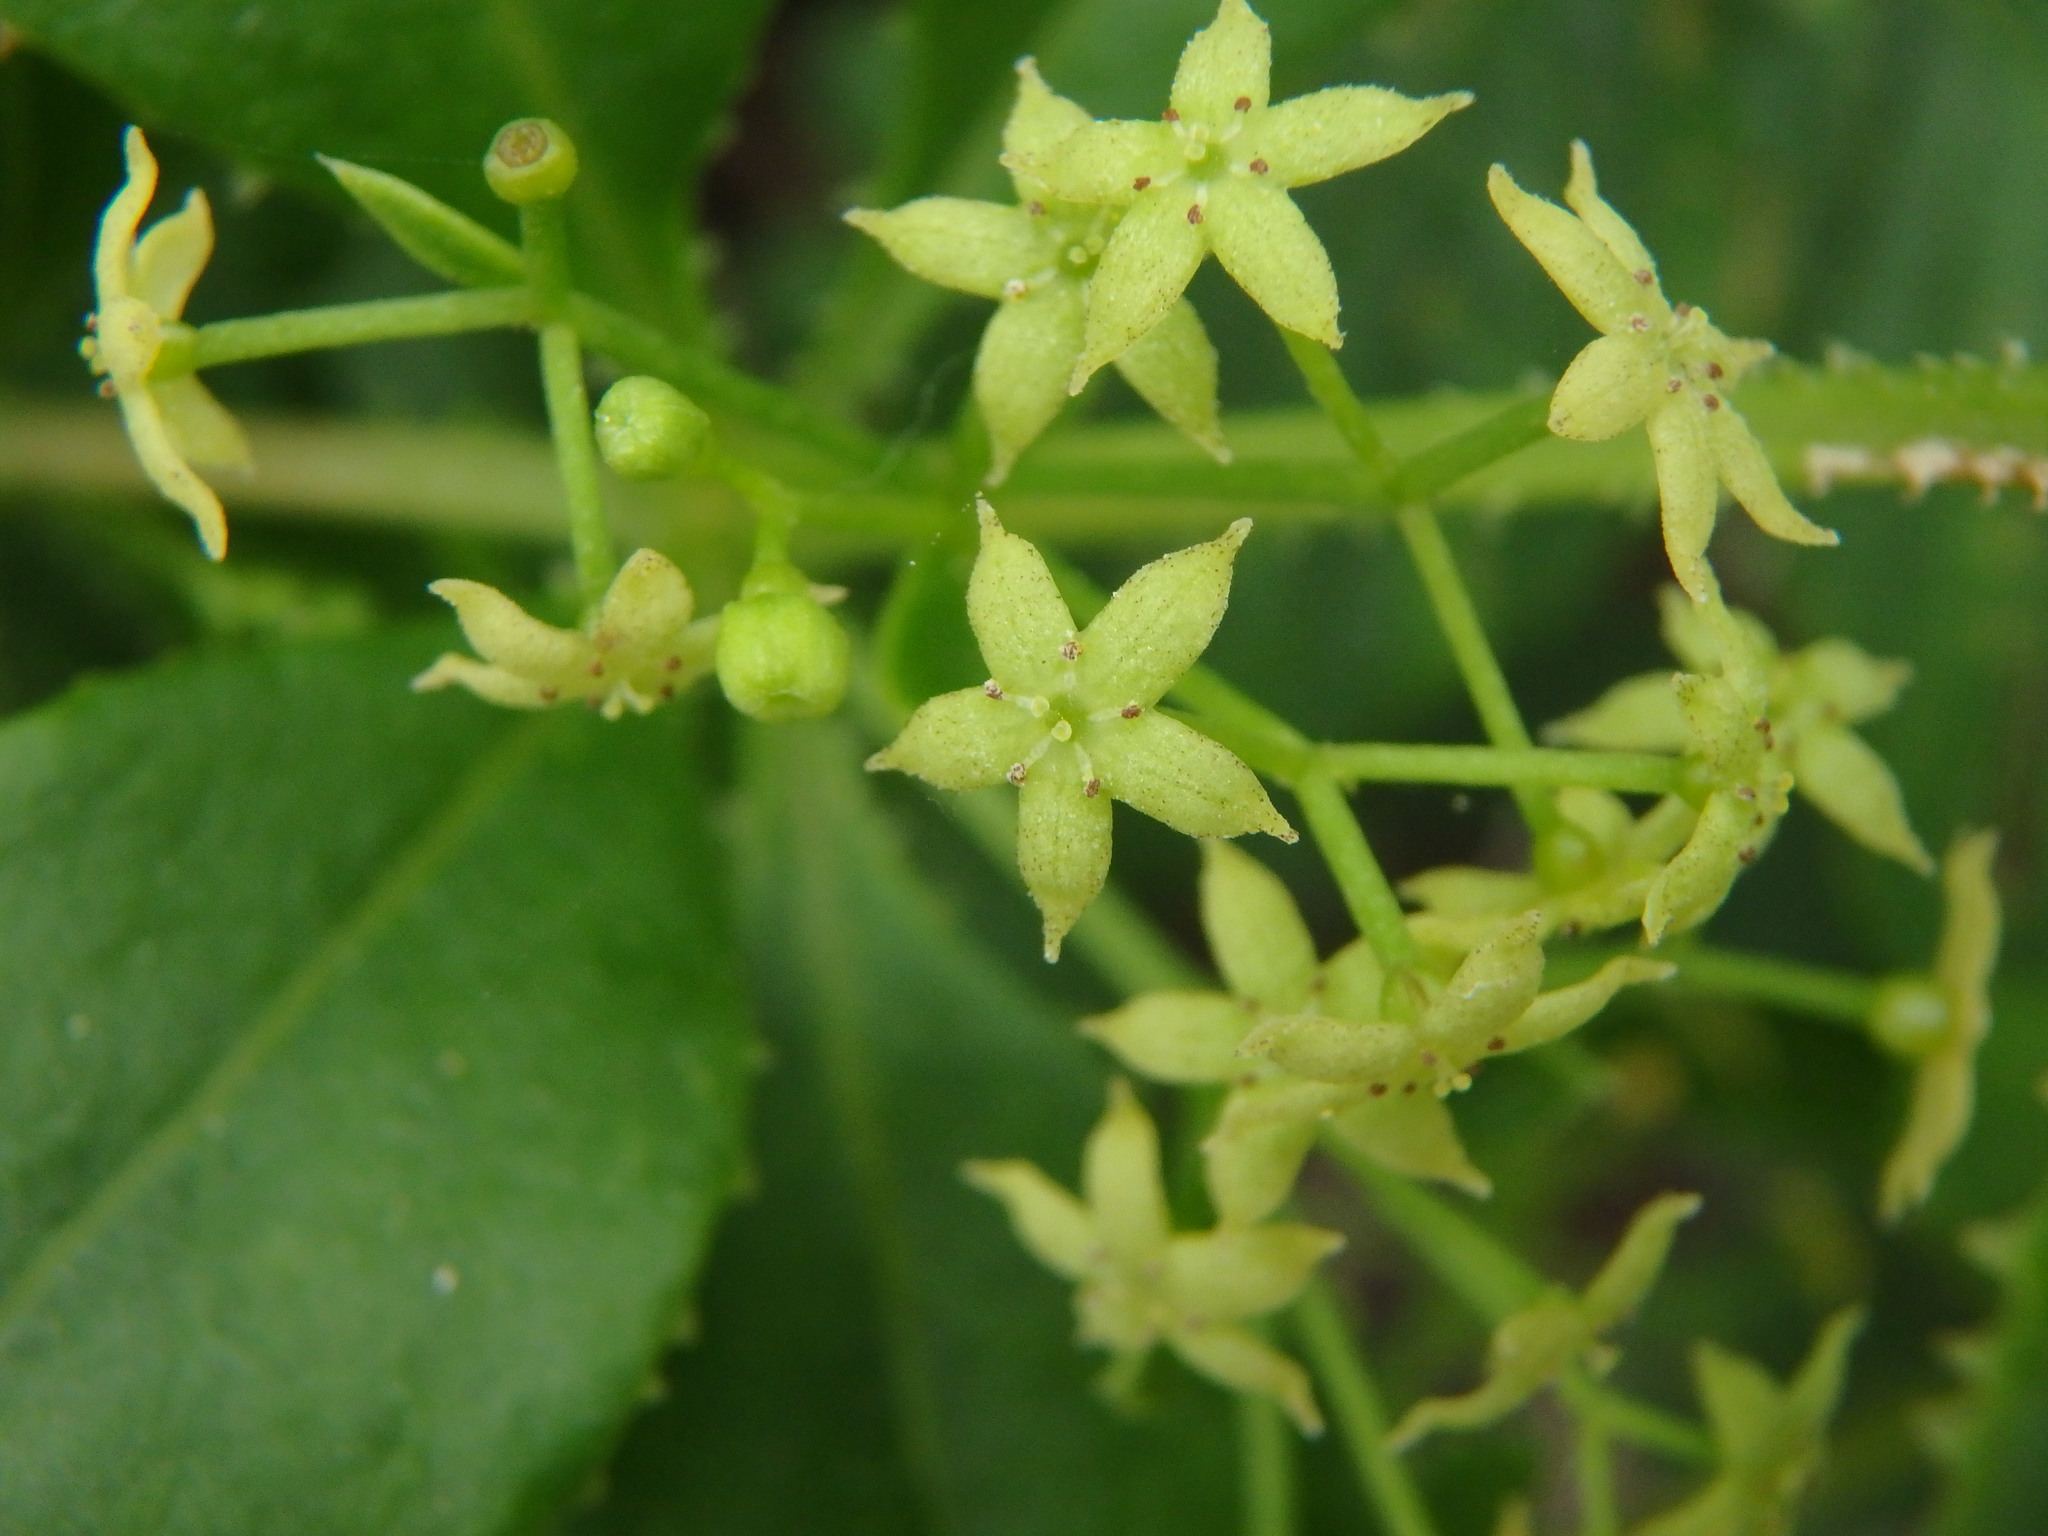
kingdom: Plantae
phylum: Tracheophyta
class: Magnoliopsida
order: Gentianales
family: Rubiaceae
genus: Rubia
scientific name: Rubia fruticosa
